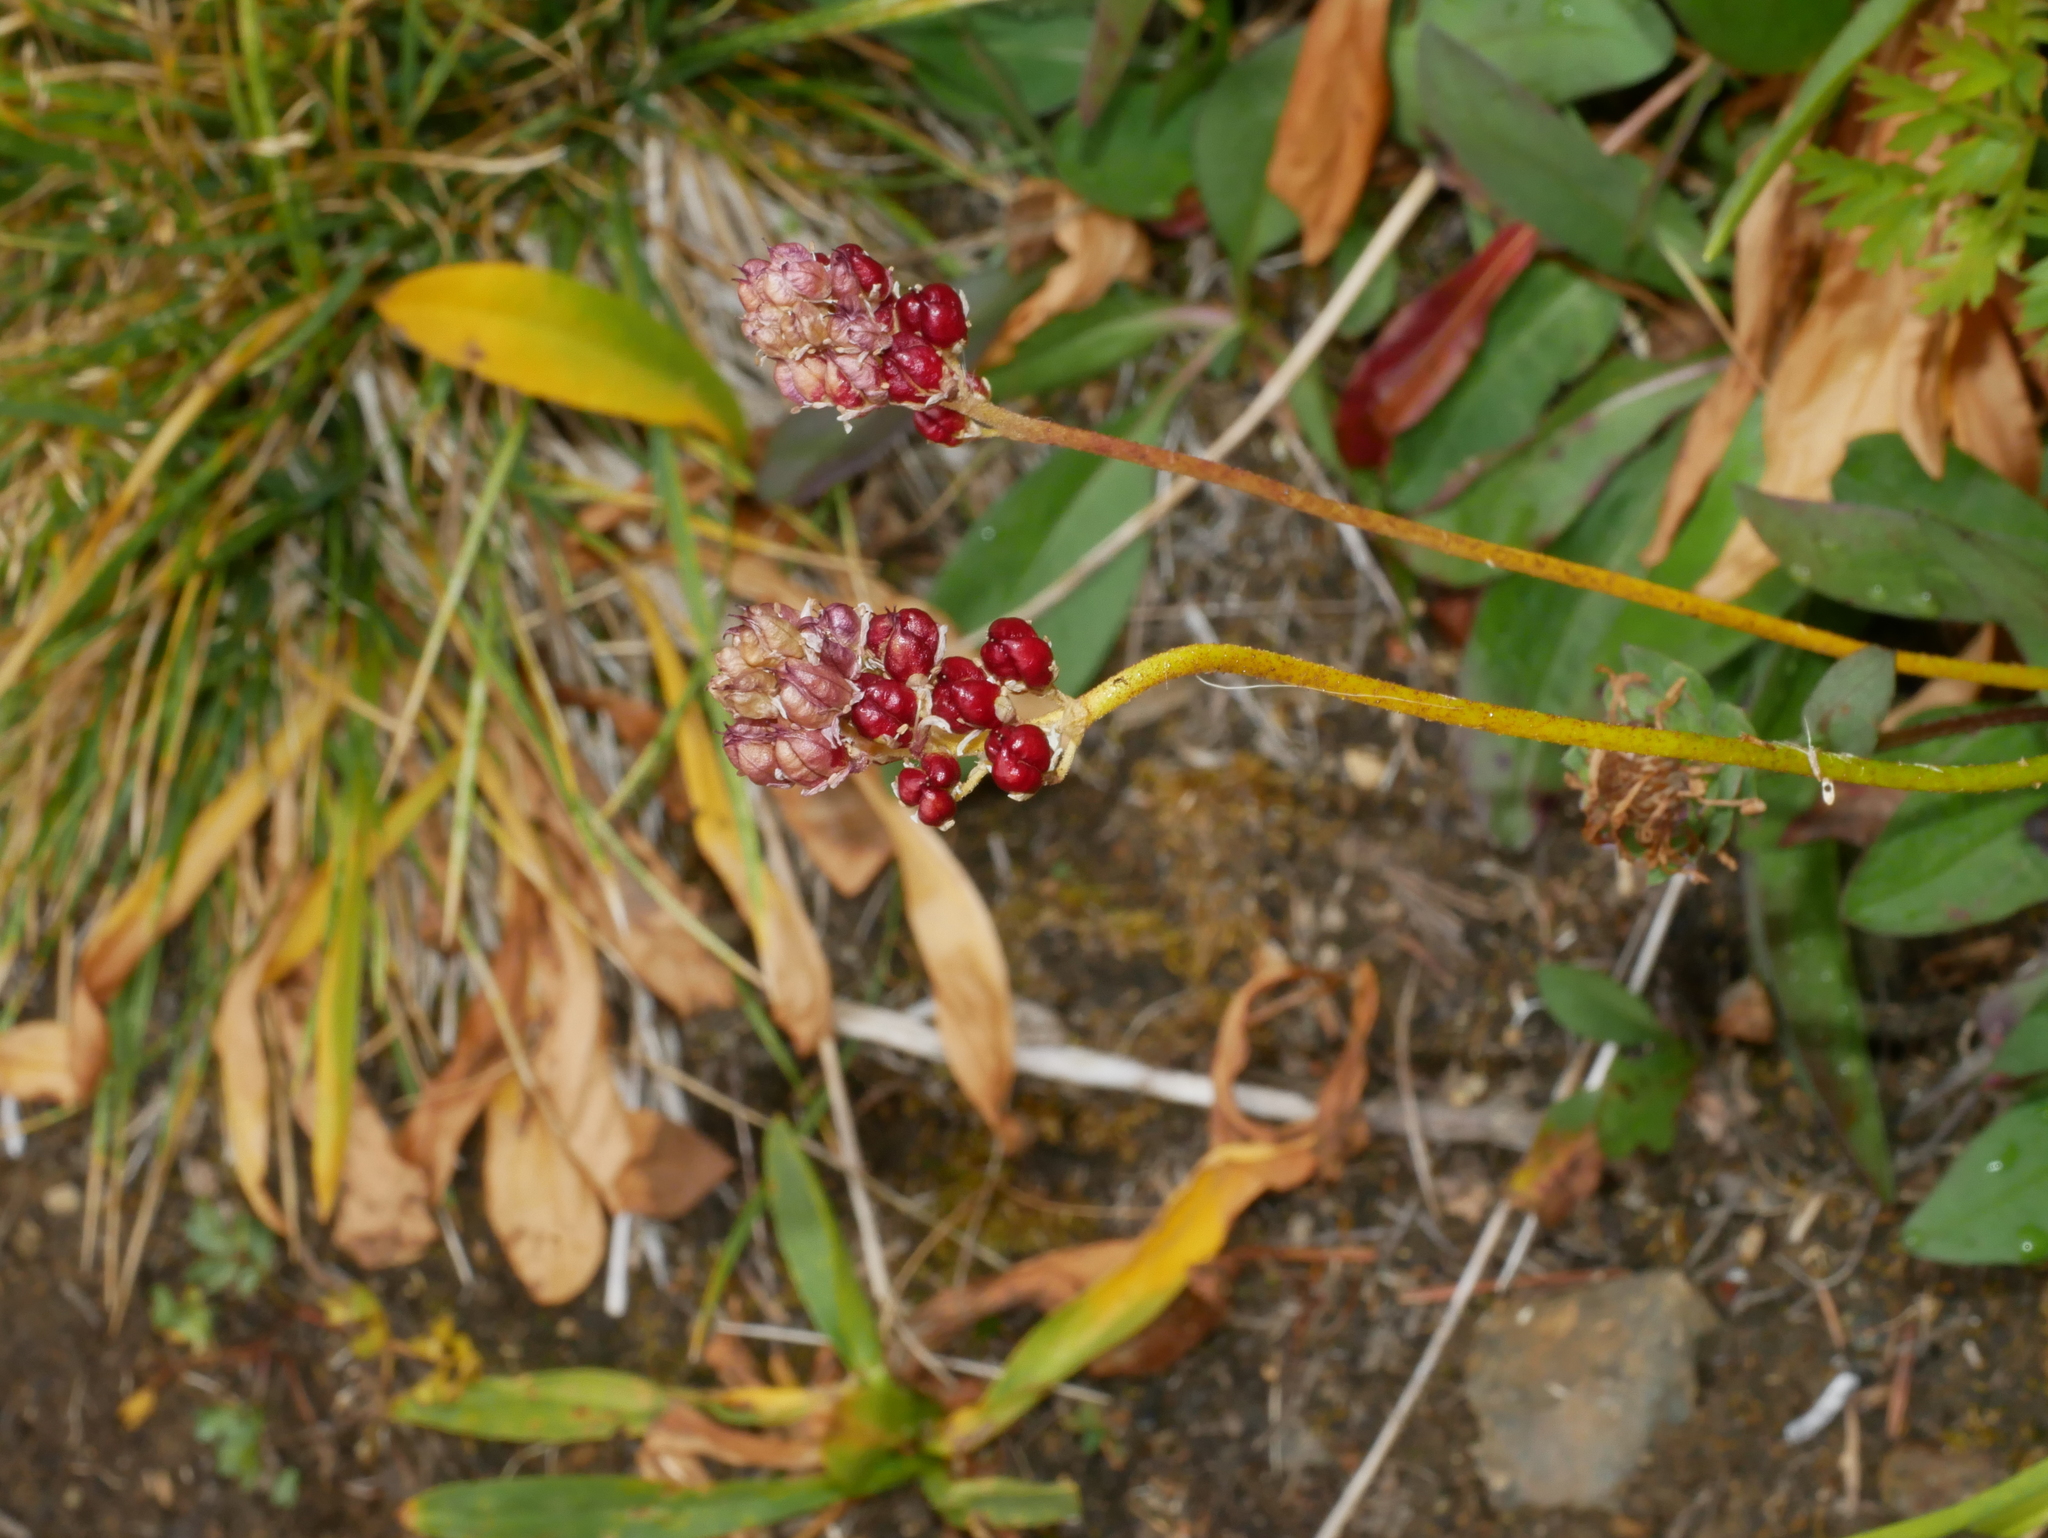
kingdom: Plantae
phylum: Tracheophyta
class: Liliopsida
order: Alismatales
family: Tofieldiaceae
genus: Triantha
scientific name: Triantha occidentalis
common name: Western false asphodel
